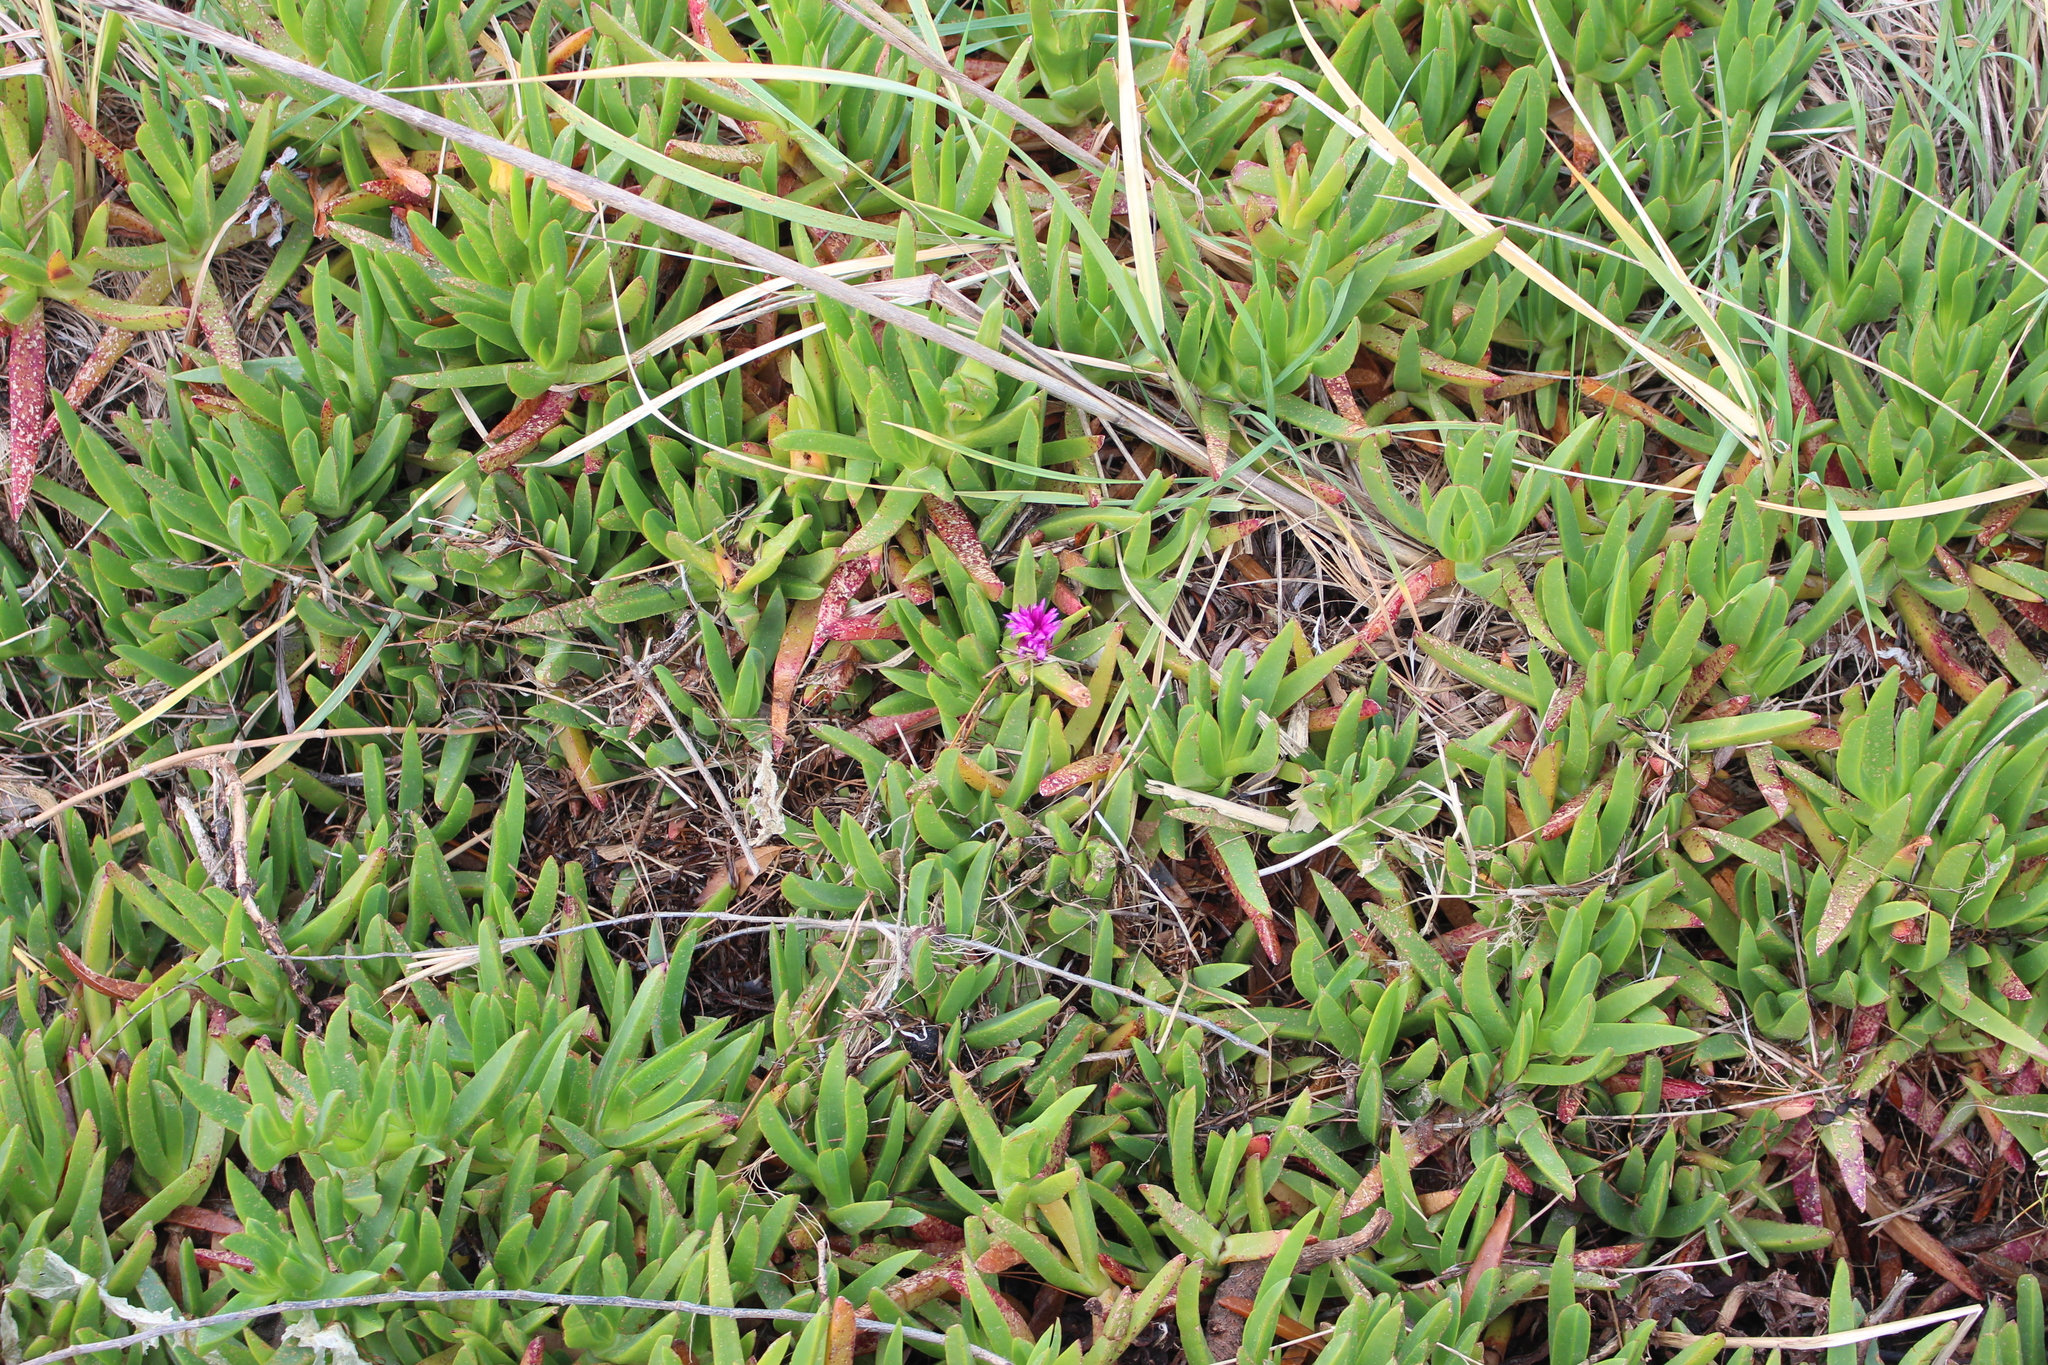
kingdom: Plantae
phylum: Tracheophyta
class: Magnoliopsida
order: Caryophyllales
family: Aizoaceae
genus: Carpobrotus
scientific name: Carpobrotus chilensis
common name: Sea fig
